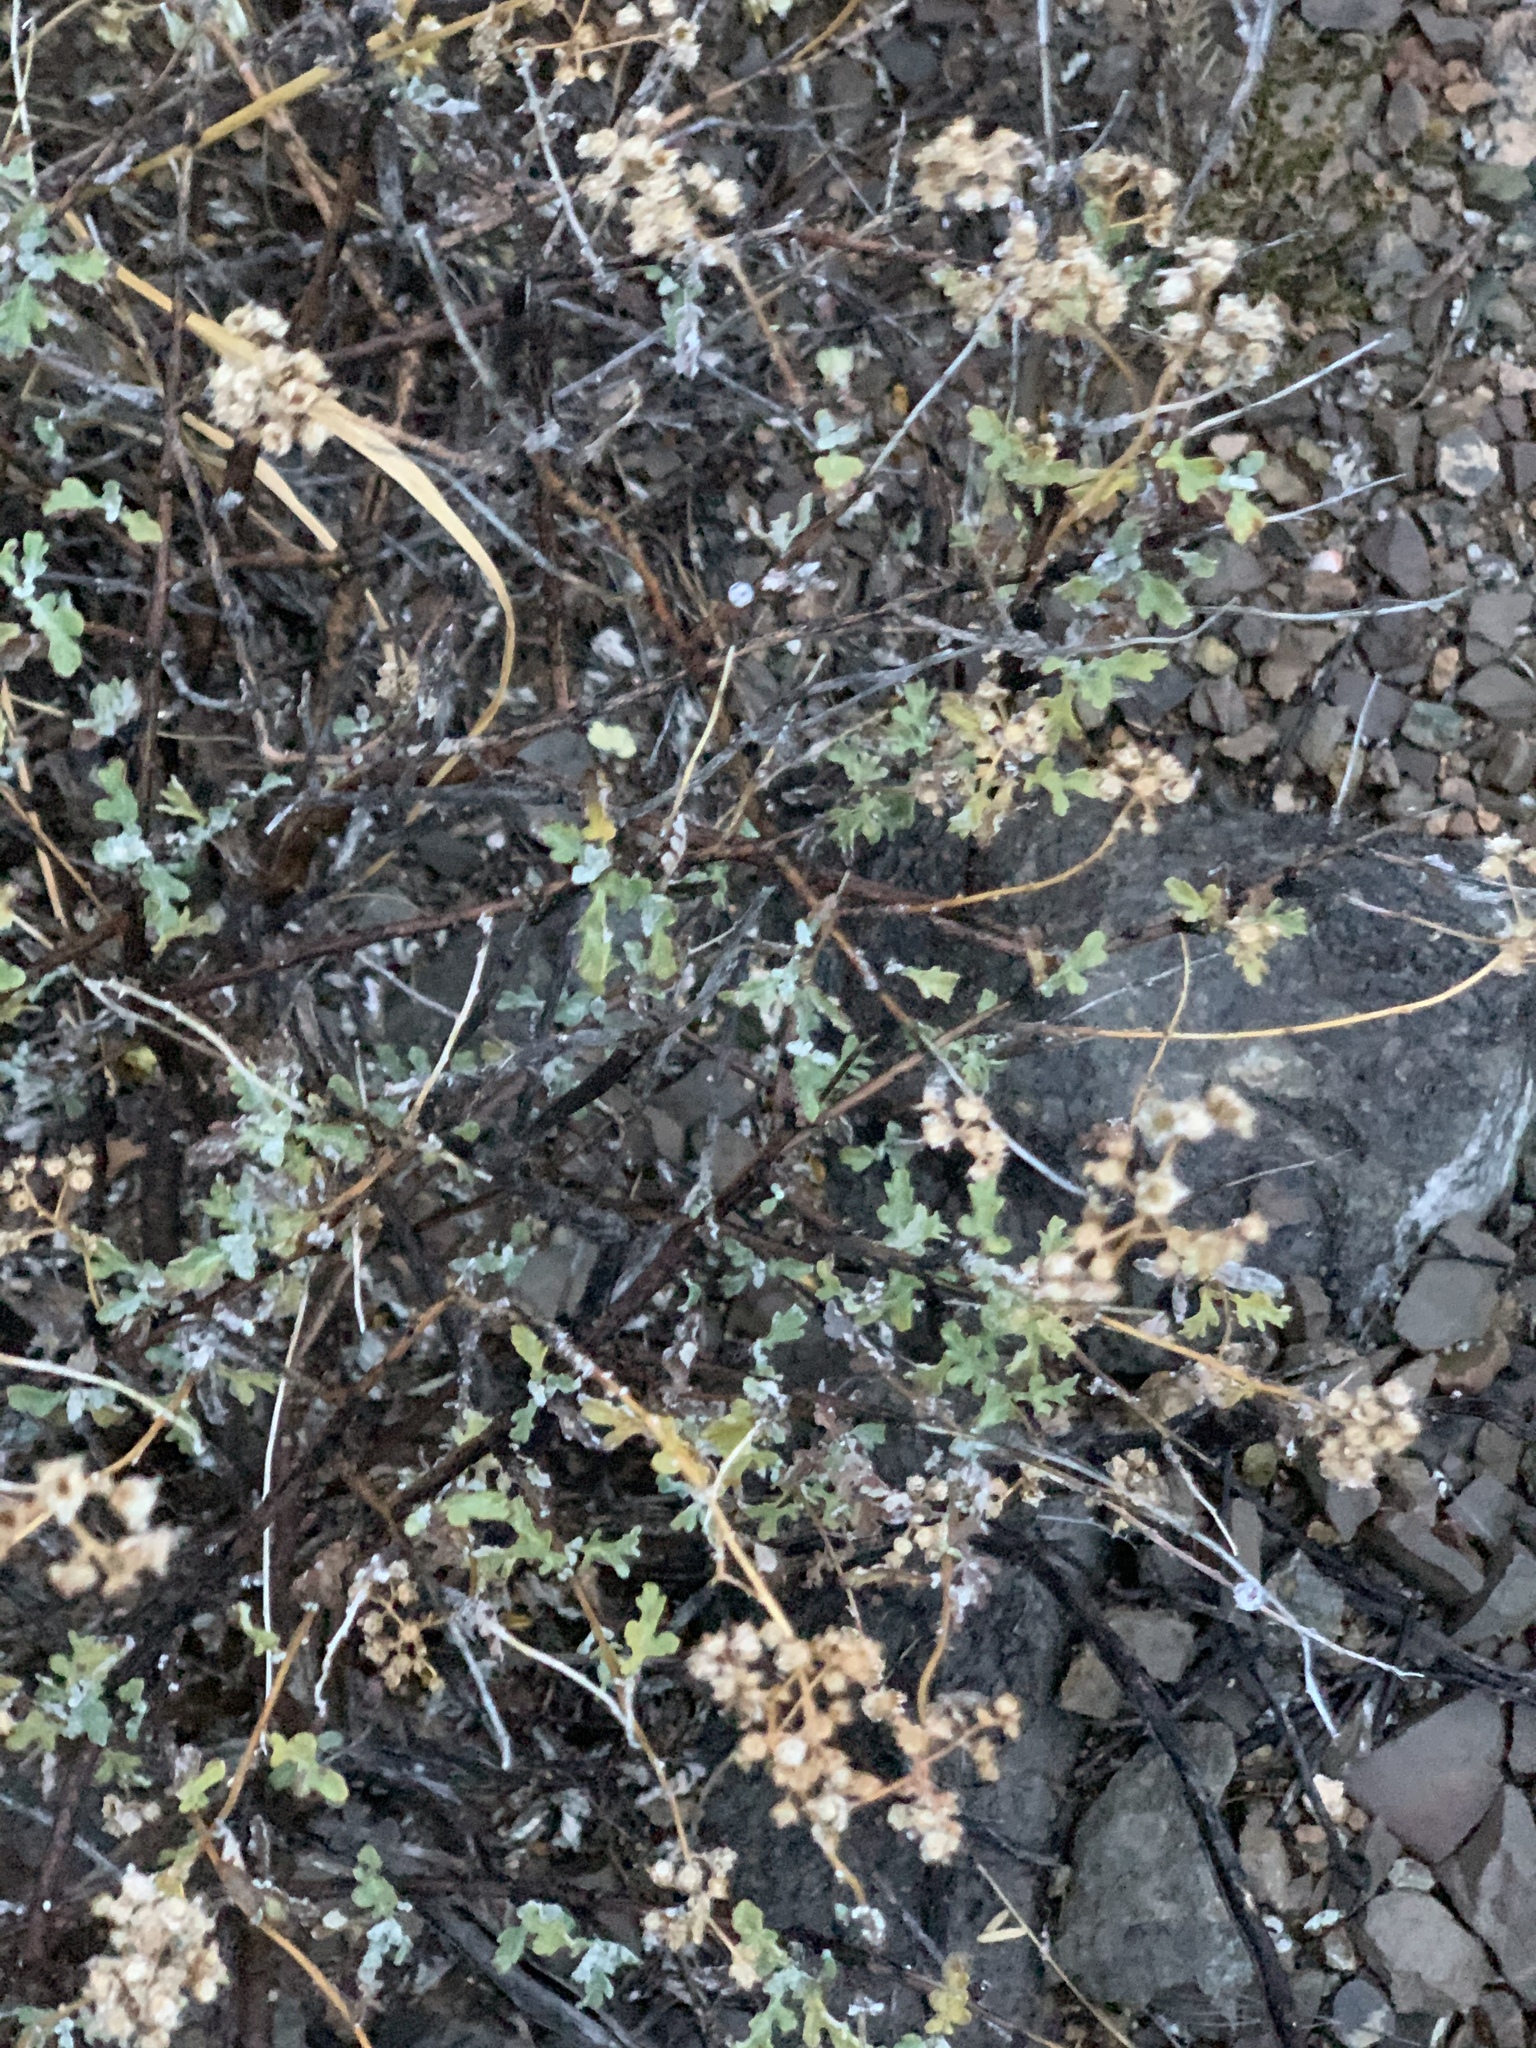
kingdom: Plantae
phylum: Tracheophyta
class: Magnoliopsida
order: Asterales
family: Asteraceae
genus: Parthenium
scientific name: Parthenium incanum
